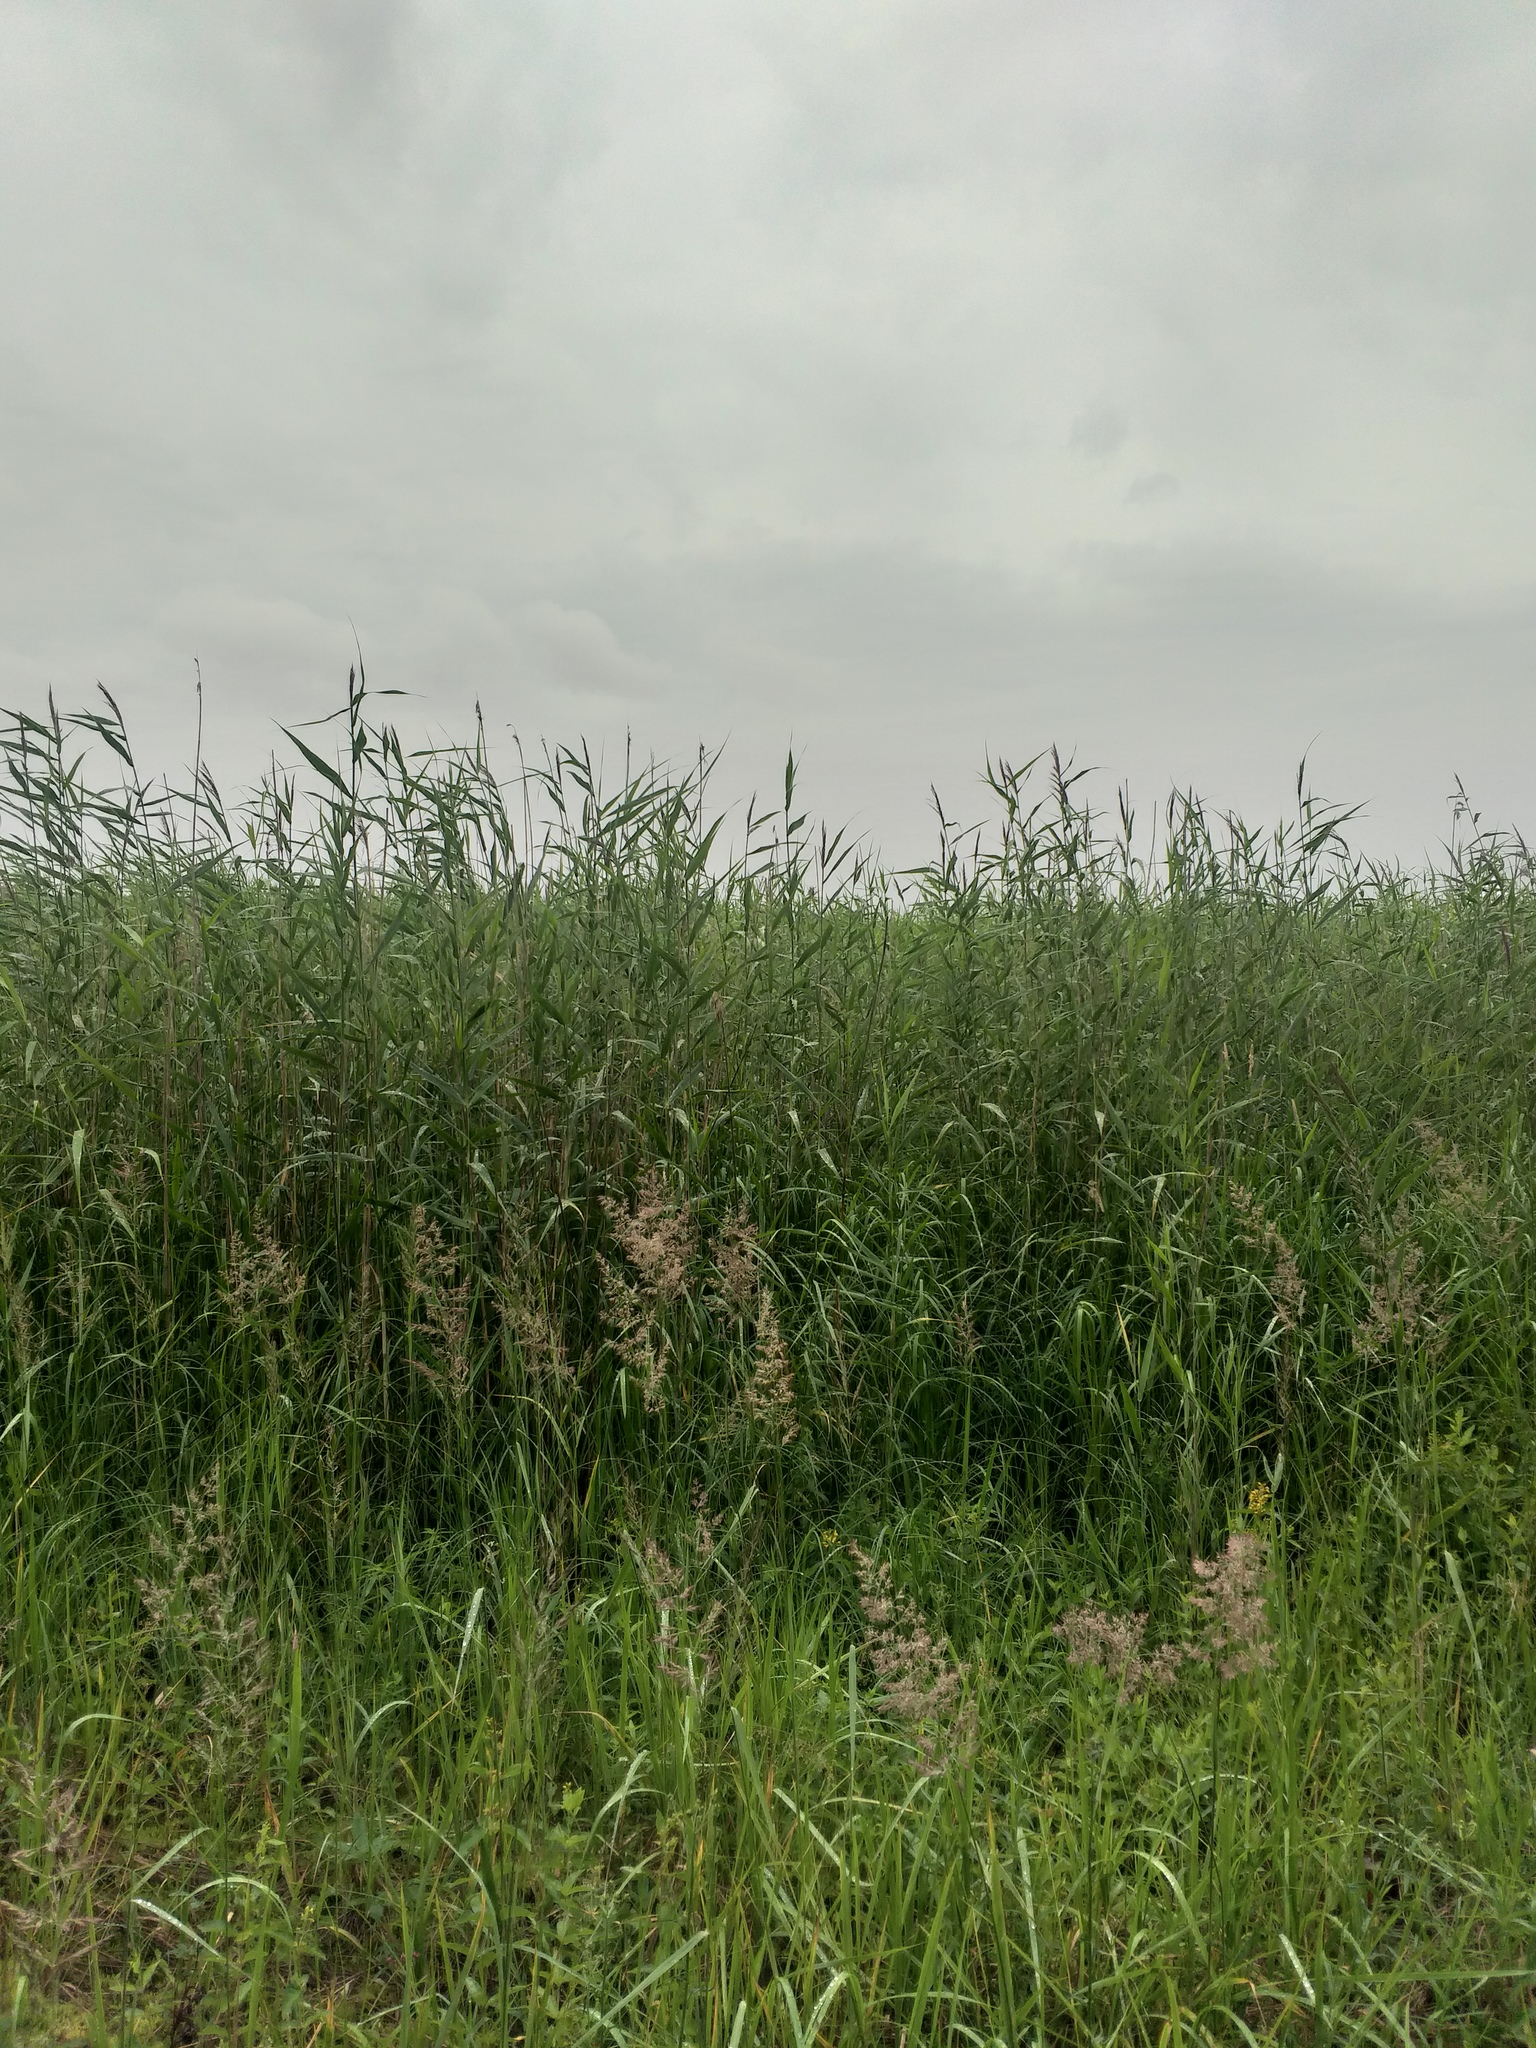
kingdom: Plantae
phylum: Tracheophyta
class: Liliopsida
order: Poales
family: Poaceae
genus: Phragmites
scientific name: Phragmites australis
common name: Common reed
